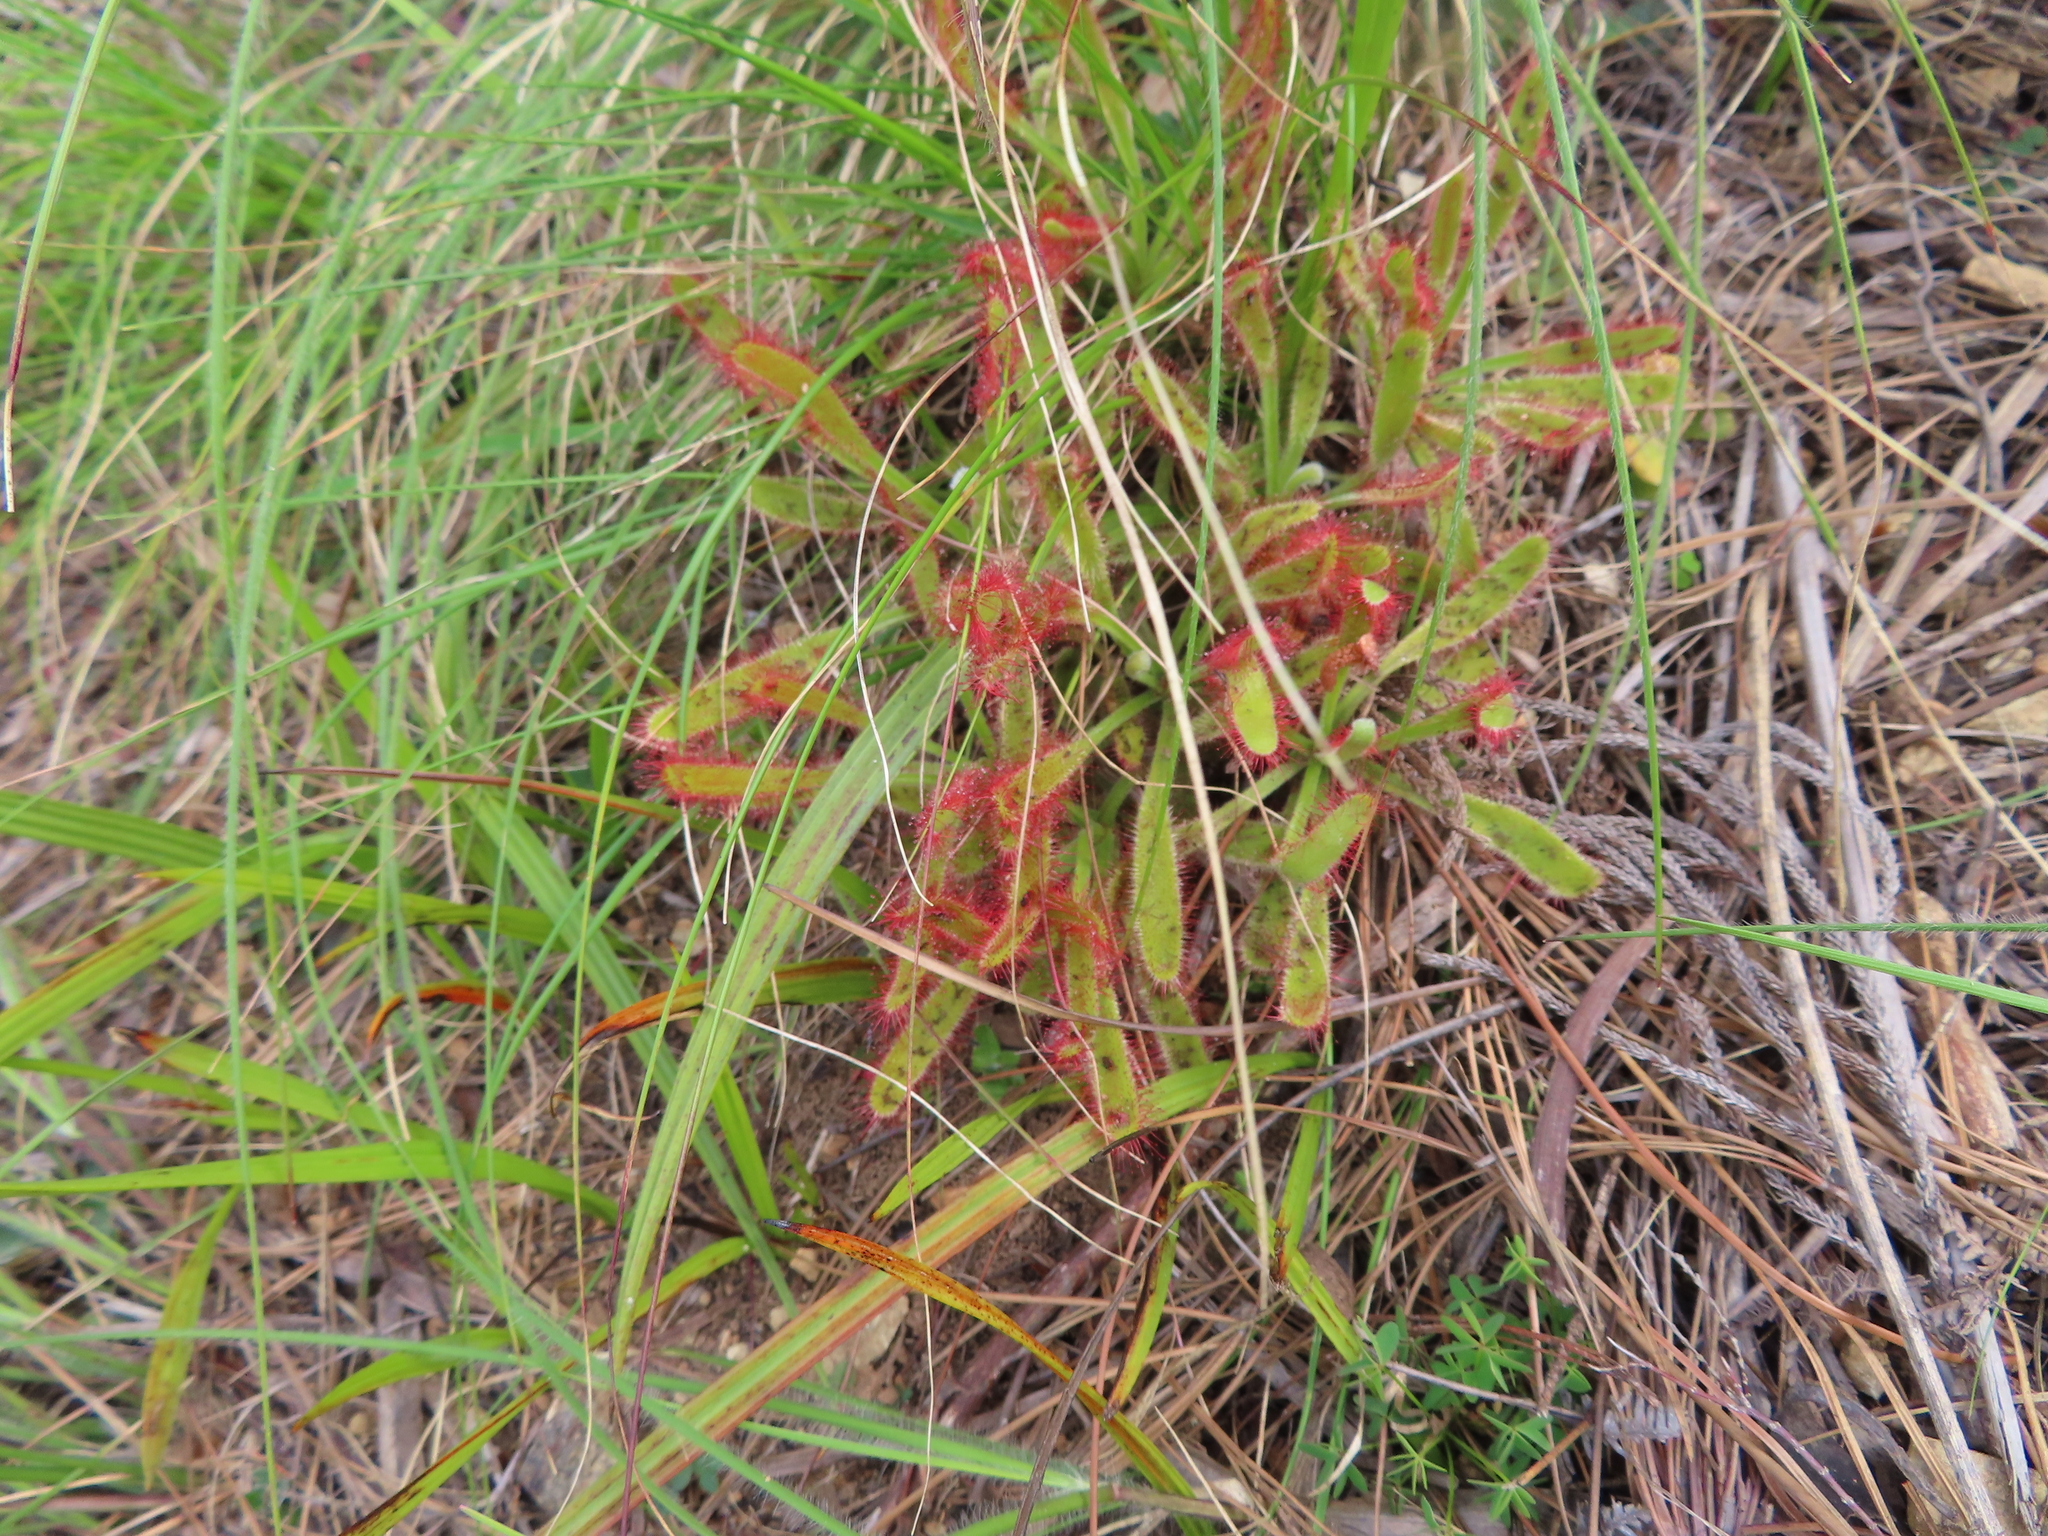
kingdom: Plantae
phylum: Tracheophyta
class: Magnoliopsida
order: Caryophyllales
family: Droseraceae
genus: Drosera
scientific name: Drosera hilaris
